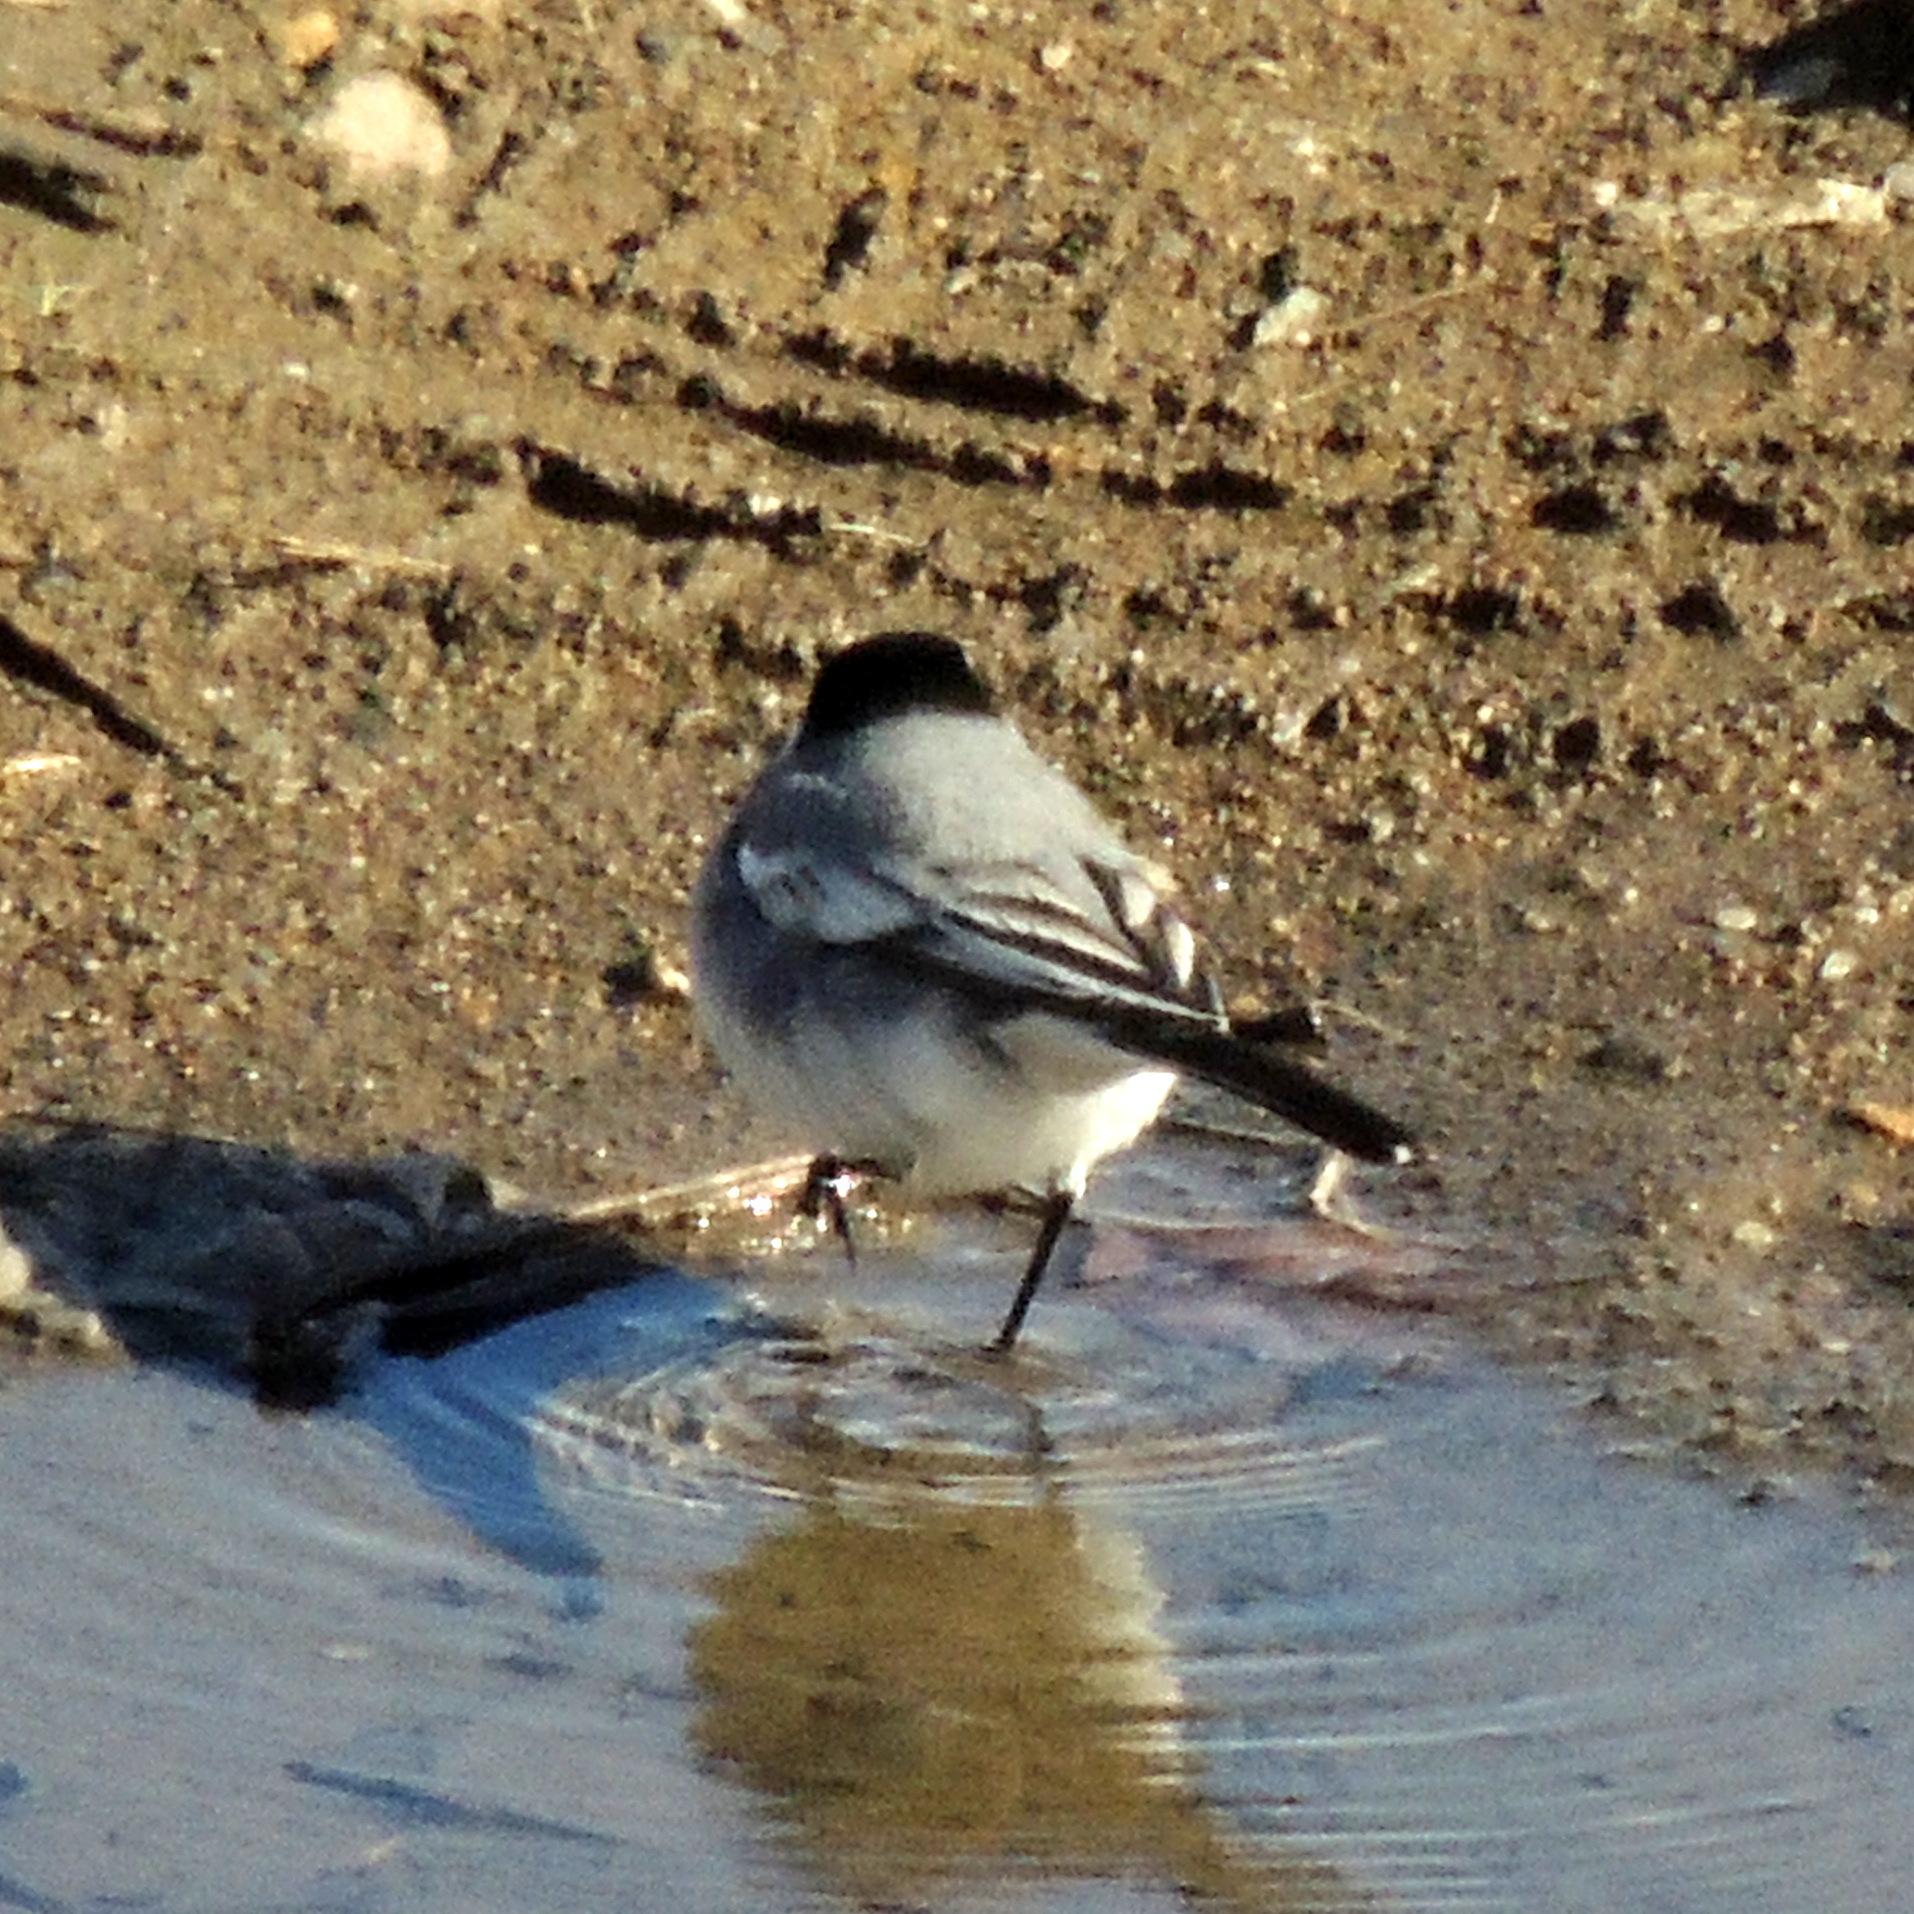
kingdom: Animalia
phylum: Chordata
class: Aves
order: Passeriformes
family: Motacillidae
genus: Motacilla
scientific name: Motacilla alba
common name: White wagtail
